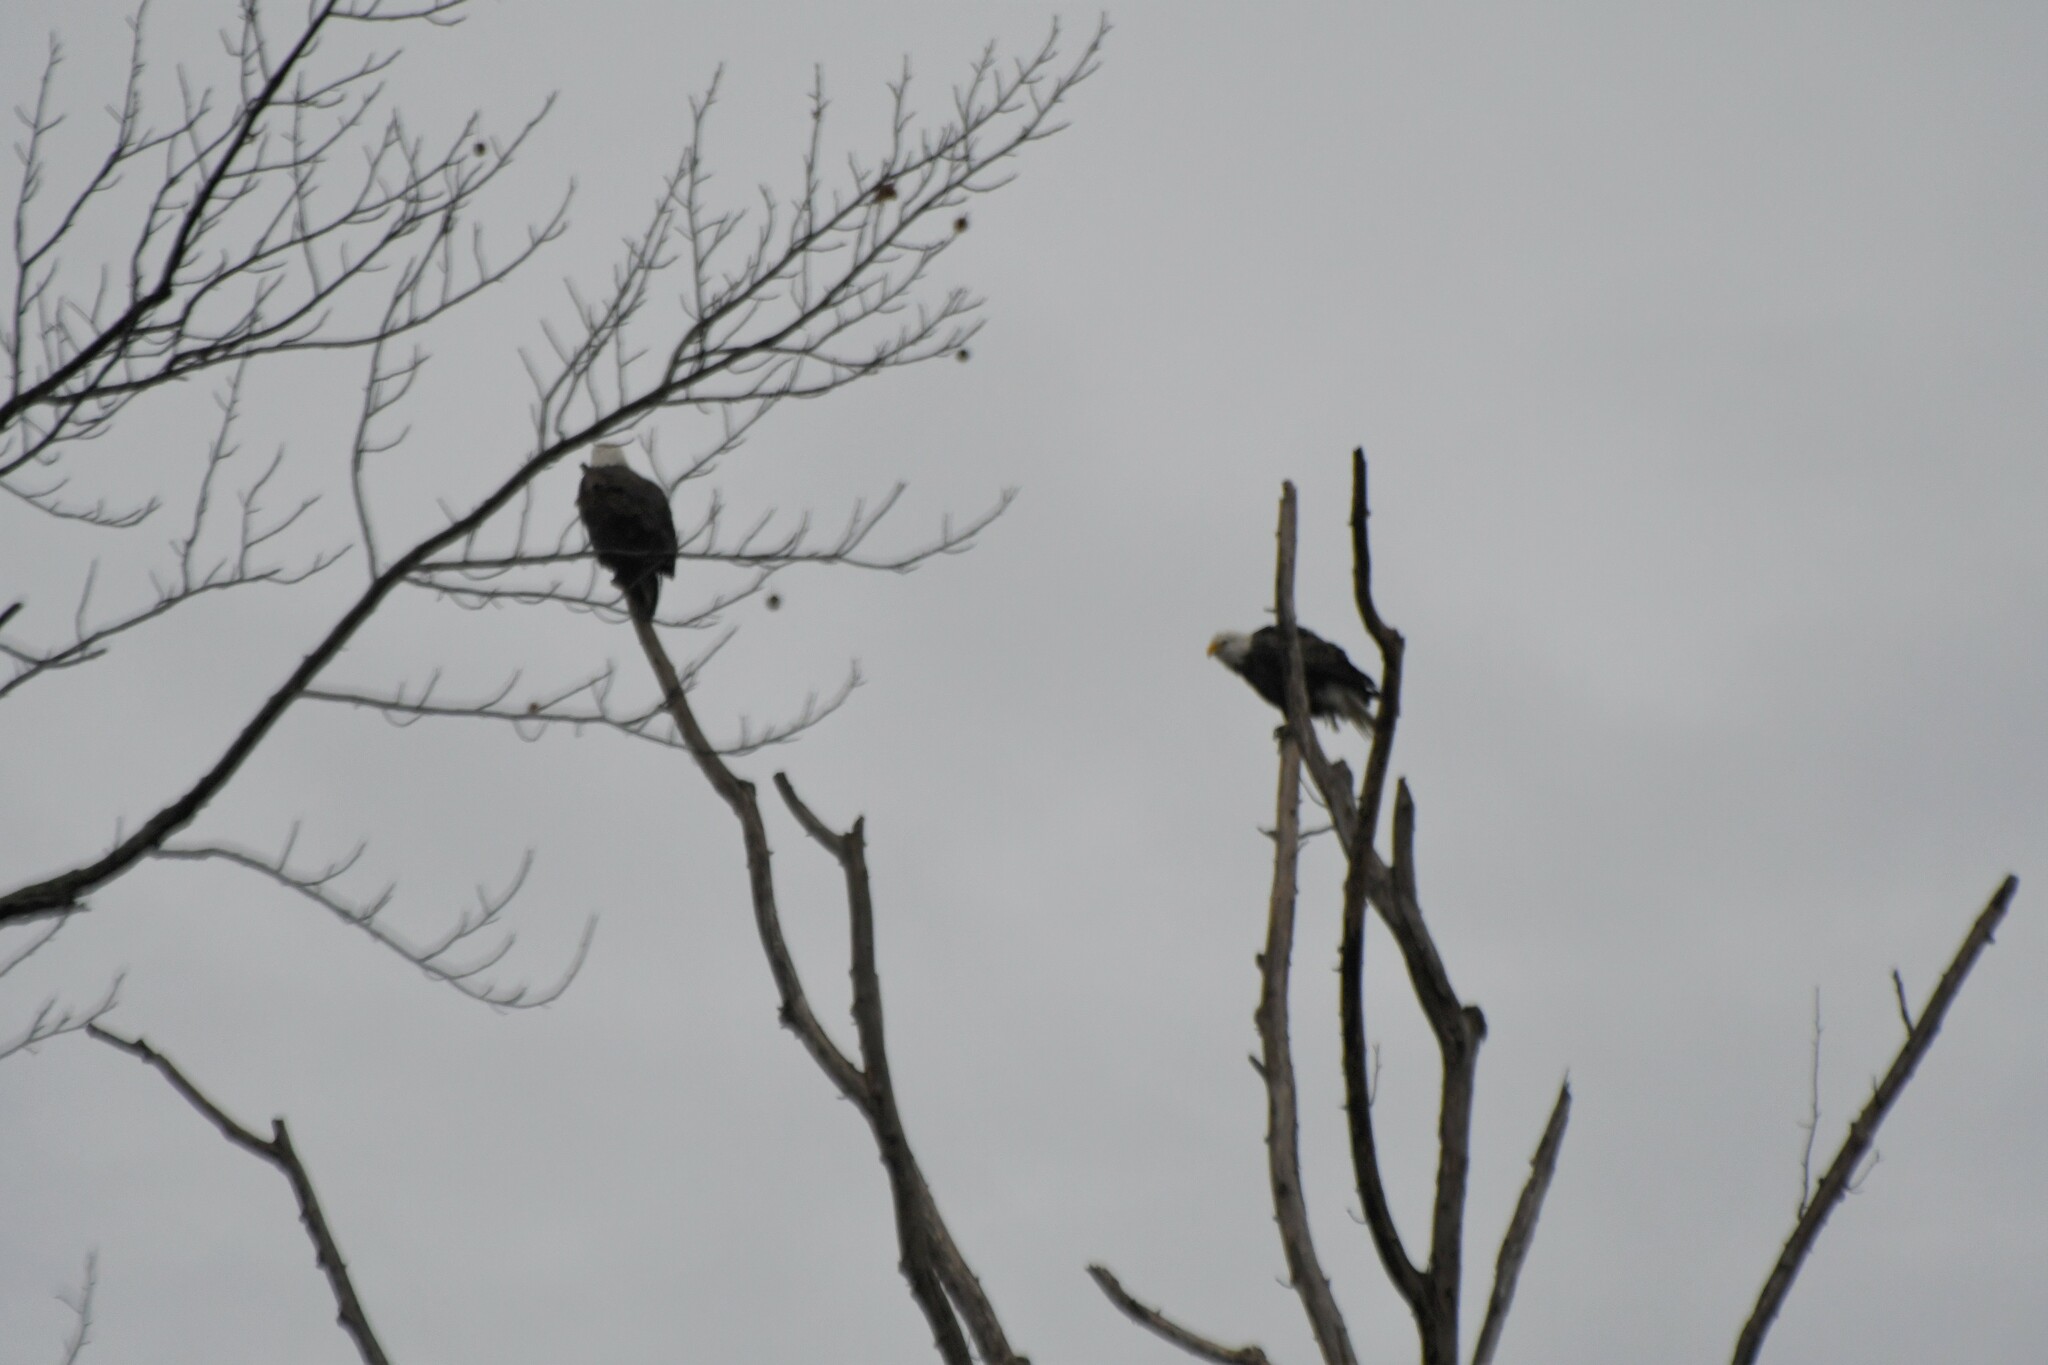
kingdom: Animalia
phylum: Chordata
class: Aves
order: Accipitriformes
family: Accipitridae
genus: Haliaeetus
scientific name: Haliaeetus leucocephalus
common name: Bald eagle
